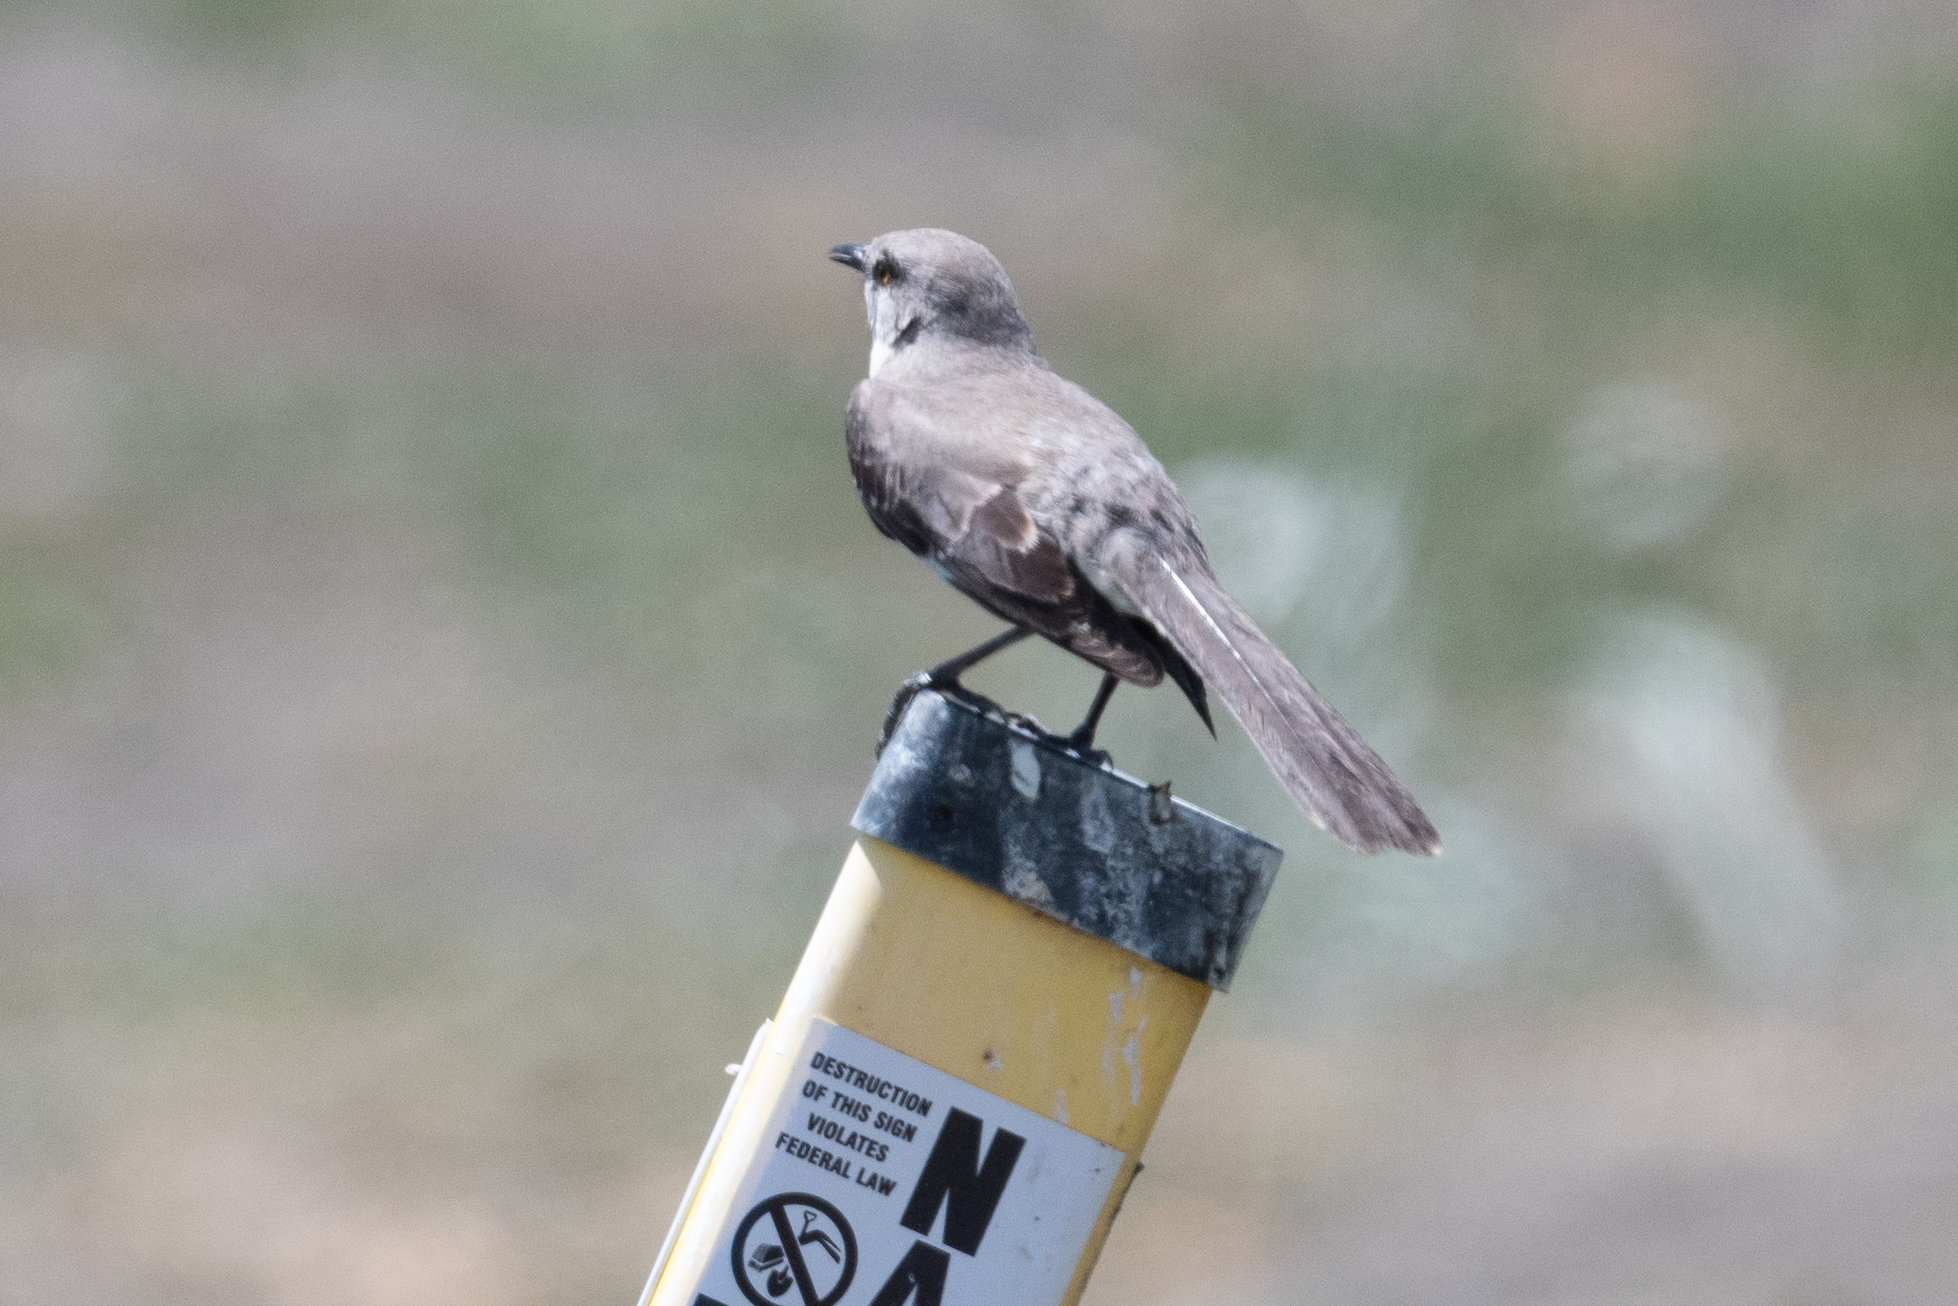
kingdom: Animalia
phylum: Chordata
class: Aves
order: Passeriformes
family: Mimidae
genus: Mimus
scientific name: Mimus polyglottos
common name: Northern mockingbird
